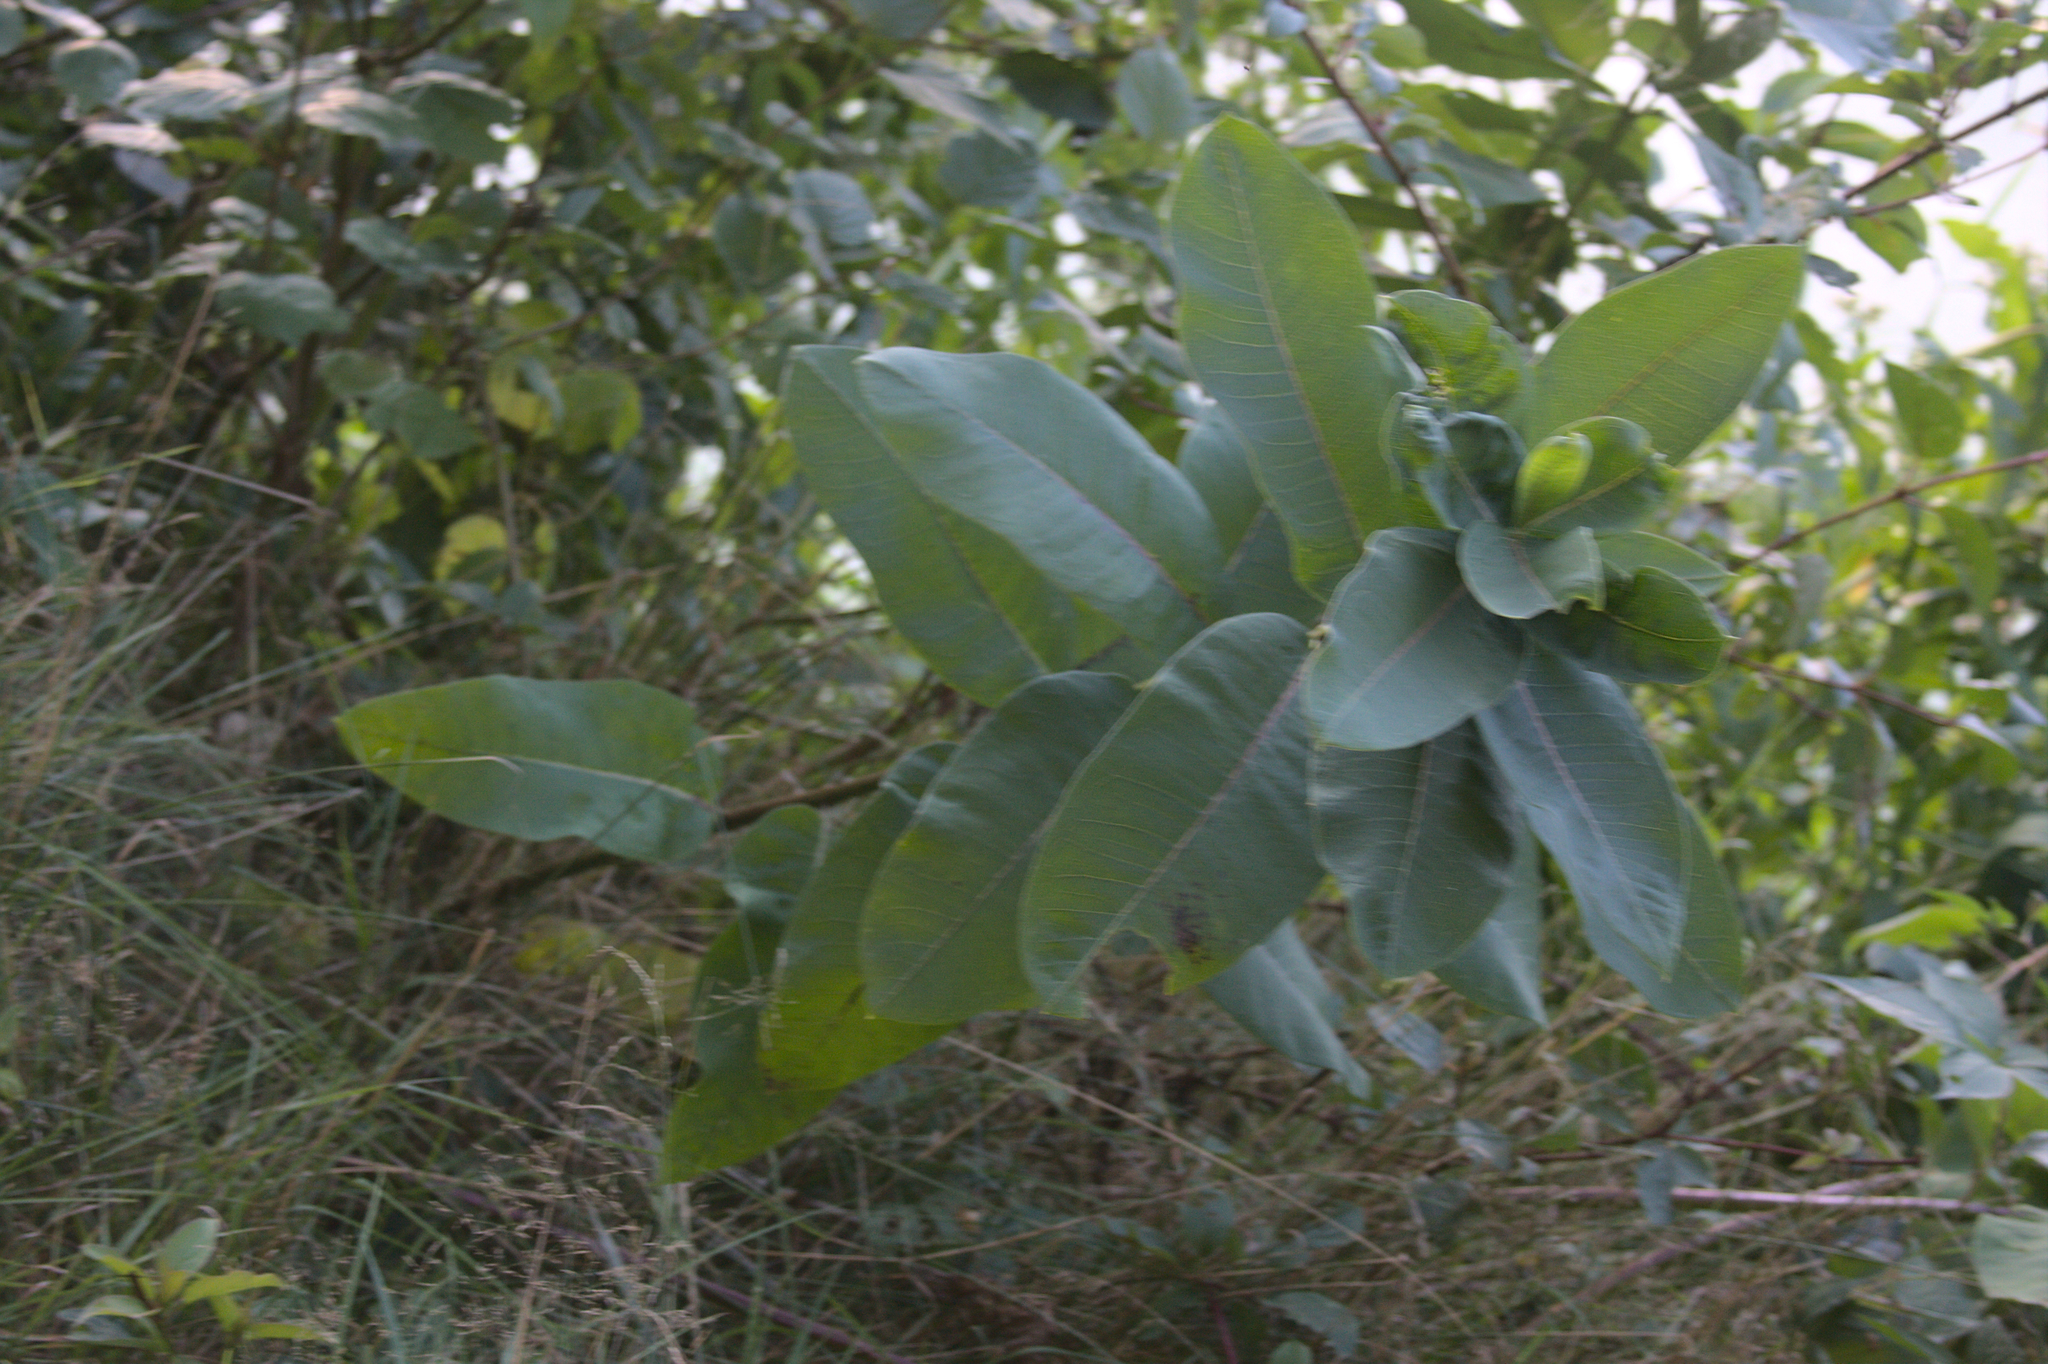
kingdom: Plantae
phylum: Tracheophyta
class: Magnoliopsida
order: Gentianales
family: Apocynaceae
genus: Asclepias
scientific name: Asclepias syriaca
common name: Common milkweed
